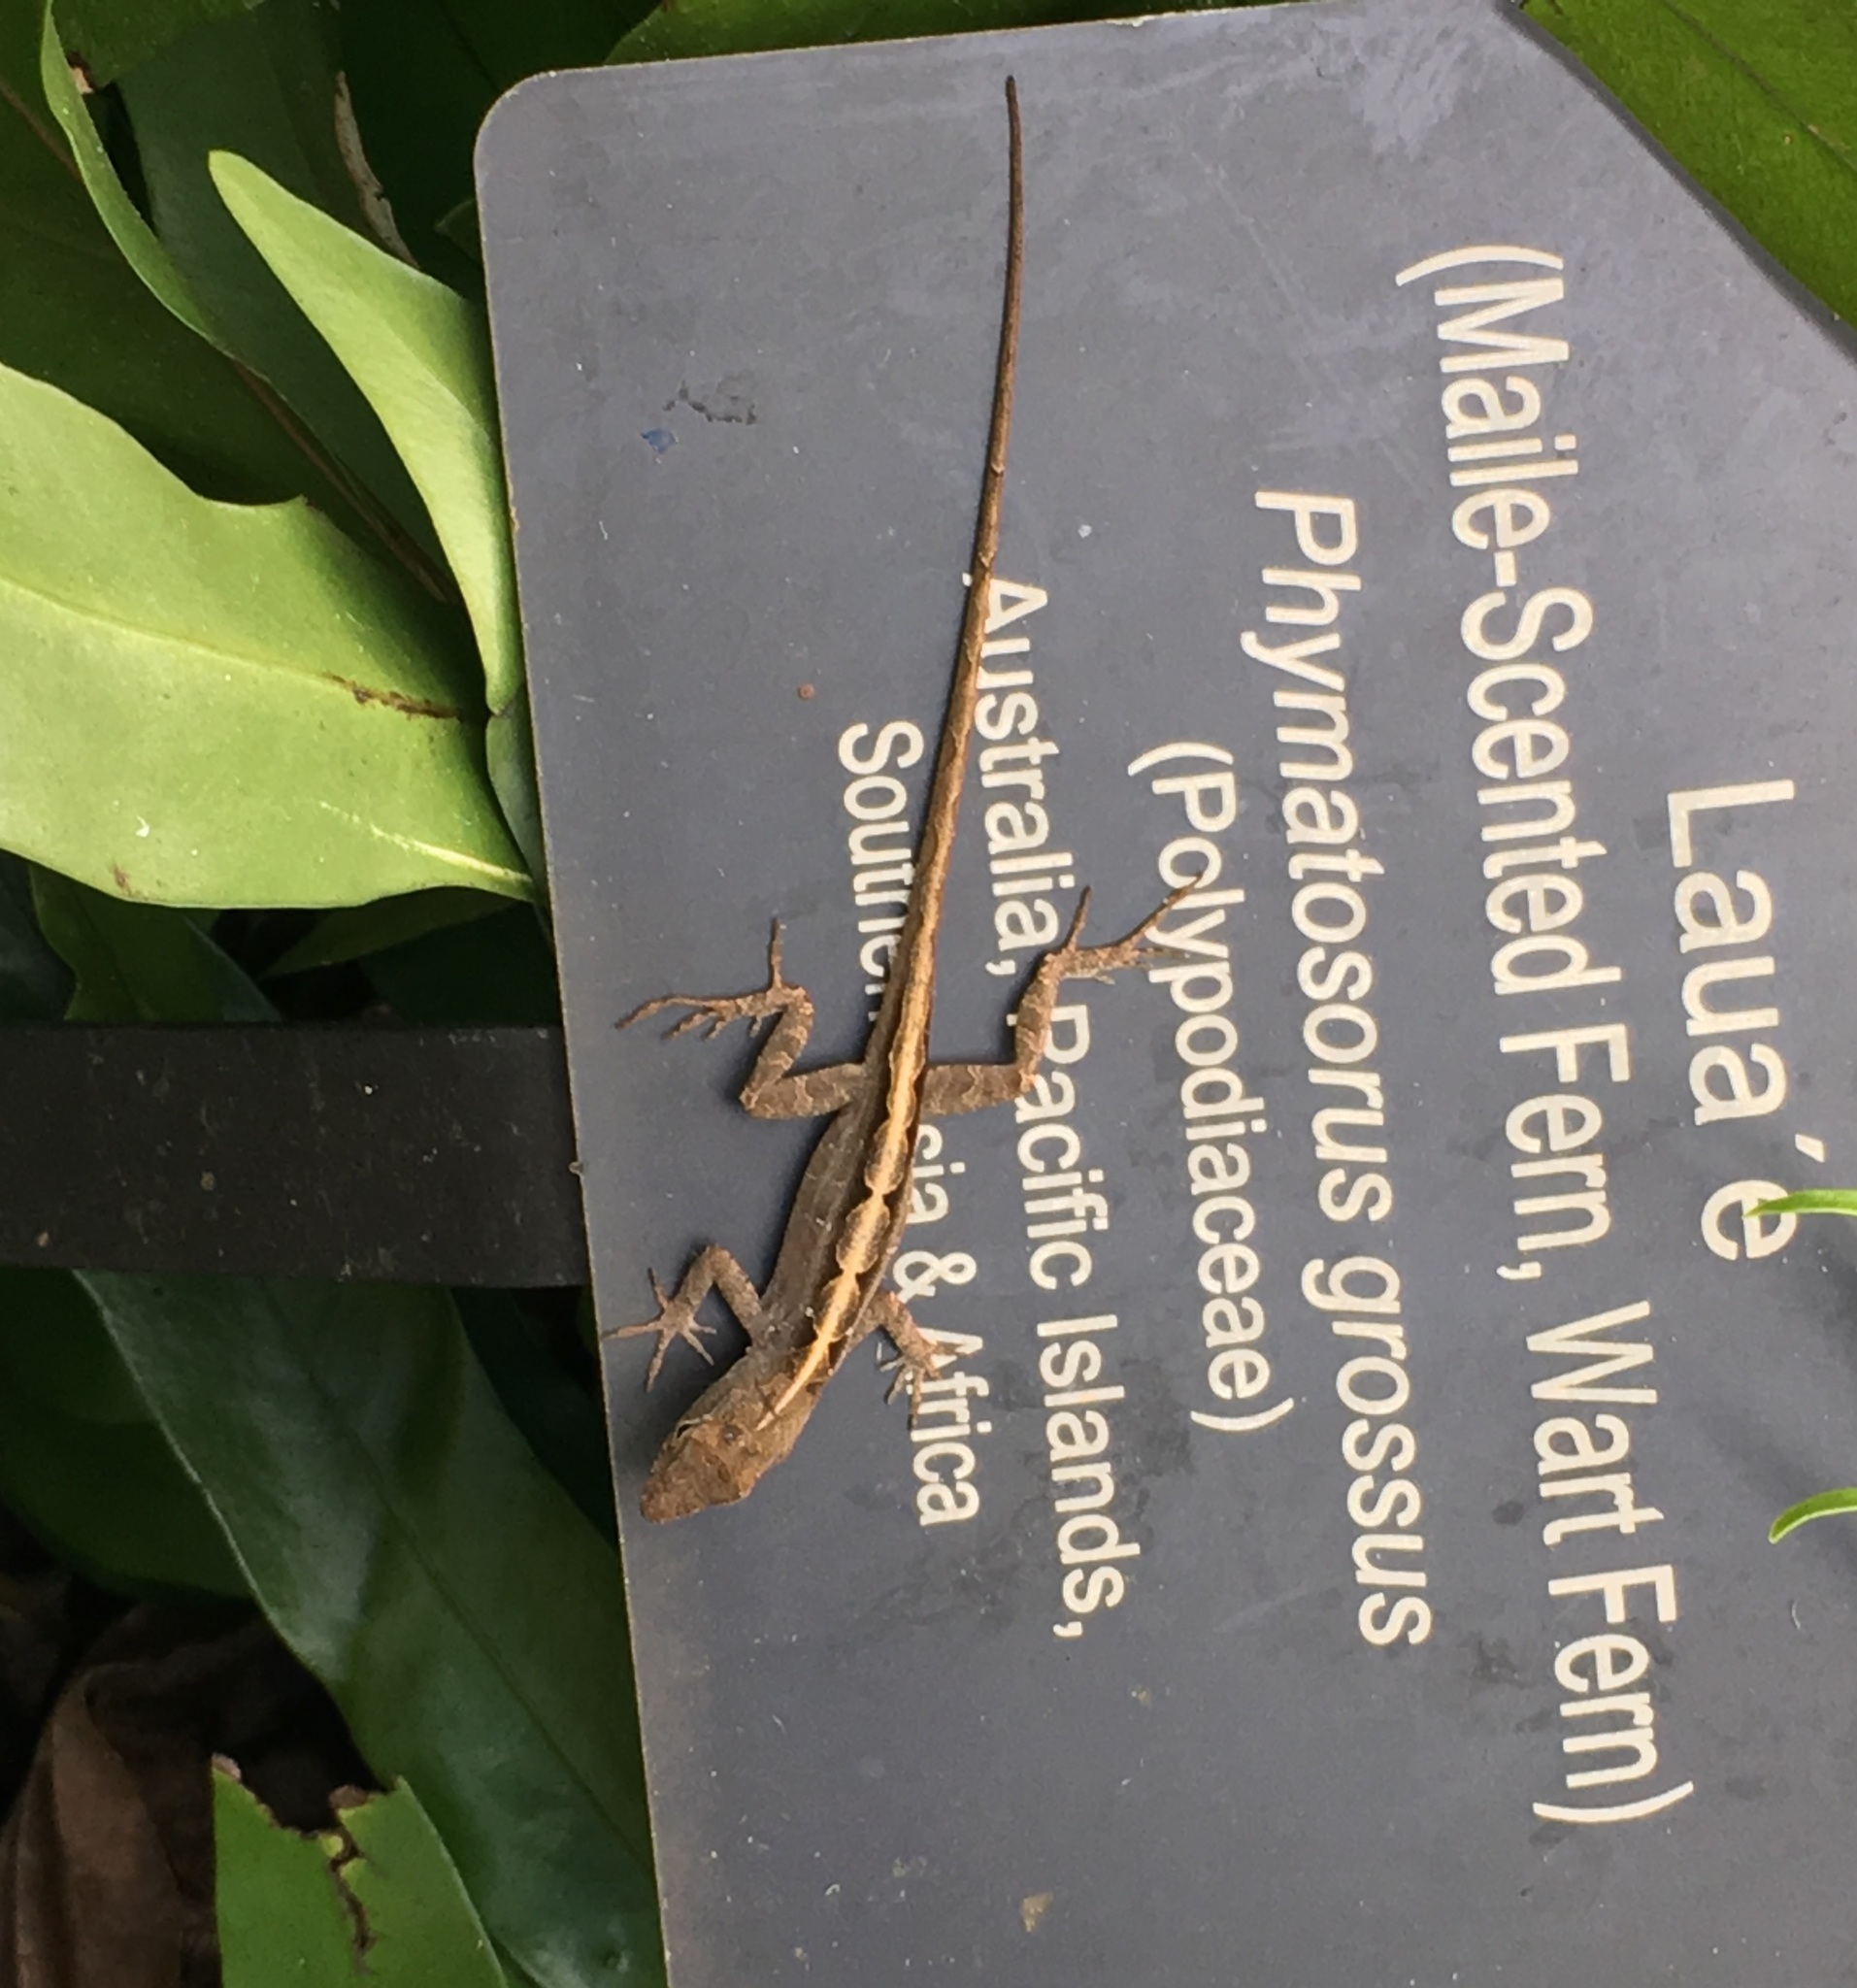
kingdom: Animalia
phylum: Chordata
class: Squamata
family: Dactyloidae
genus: Anolis
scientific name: Anolis sagrei
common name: Brown anole
